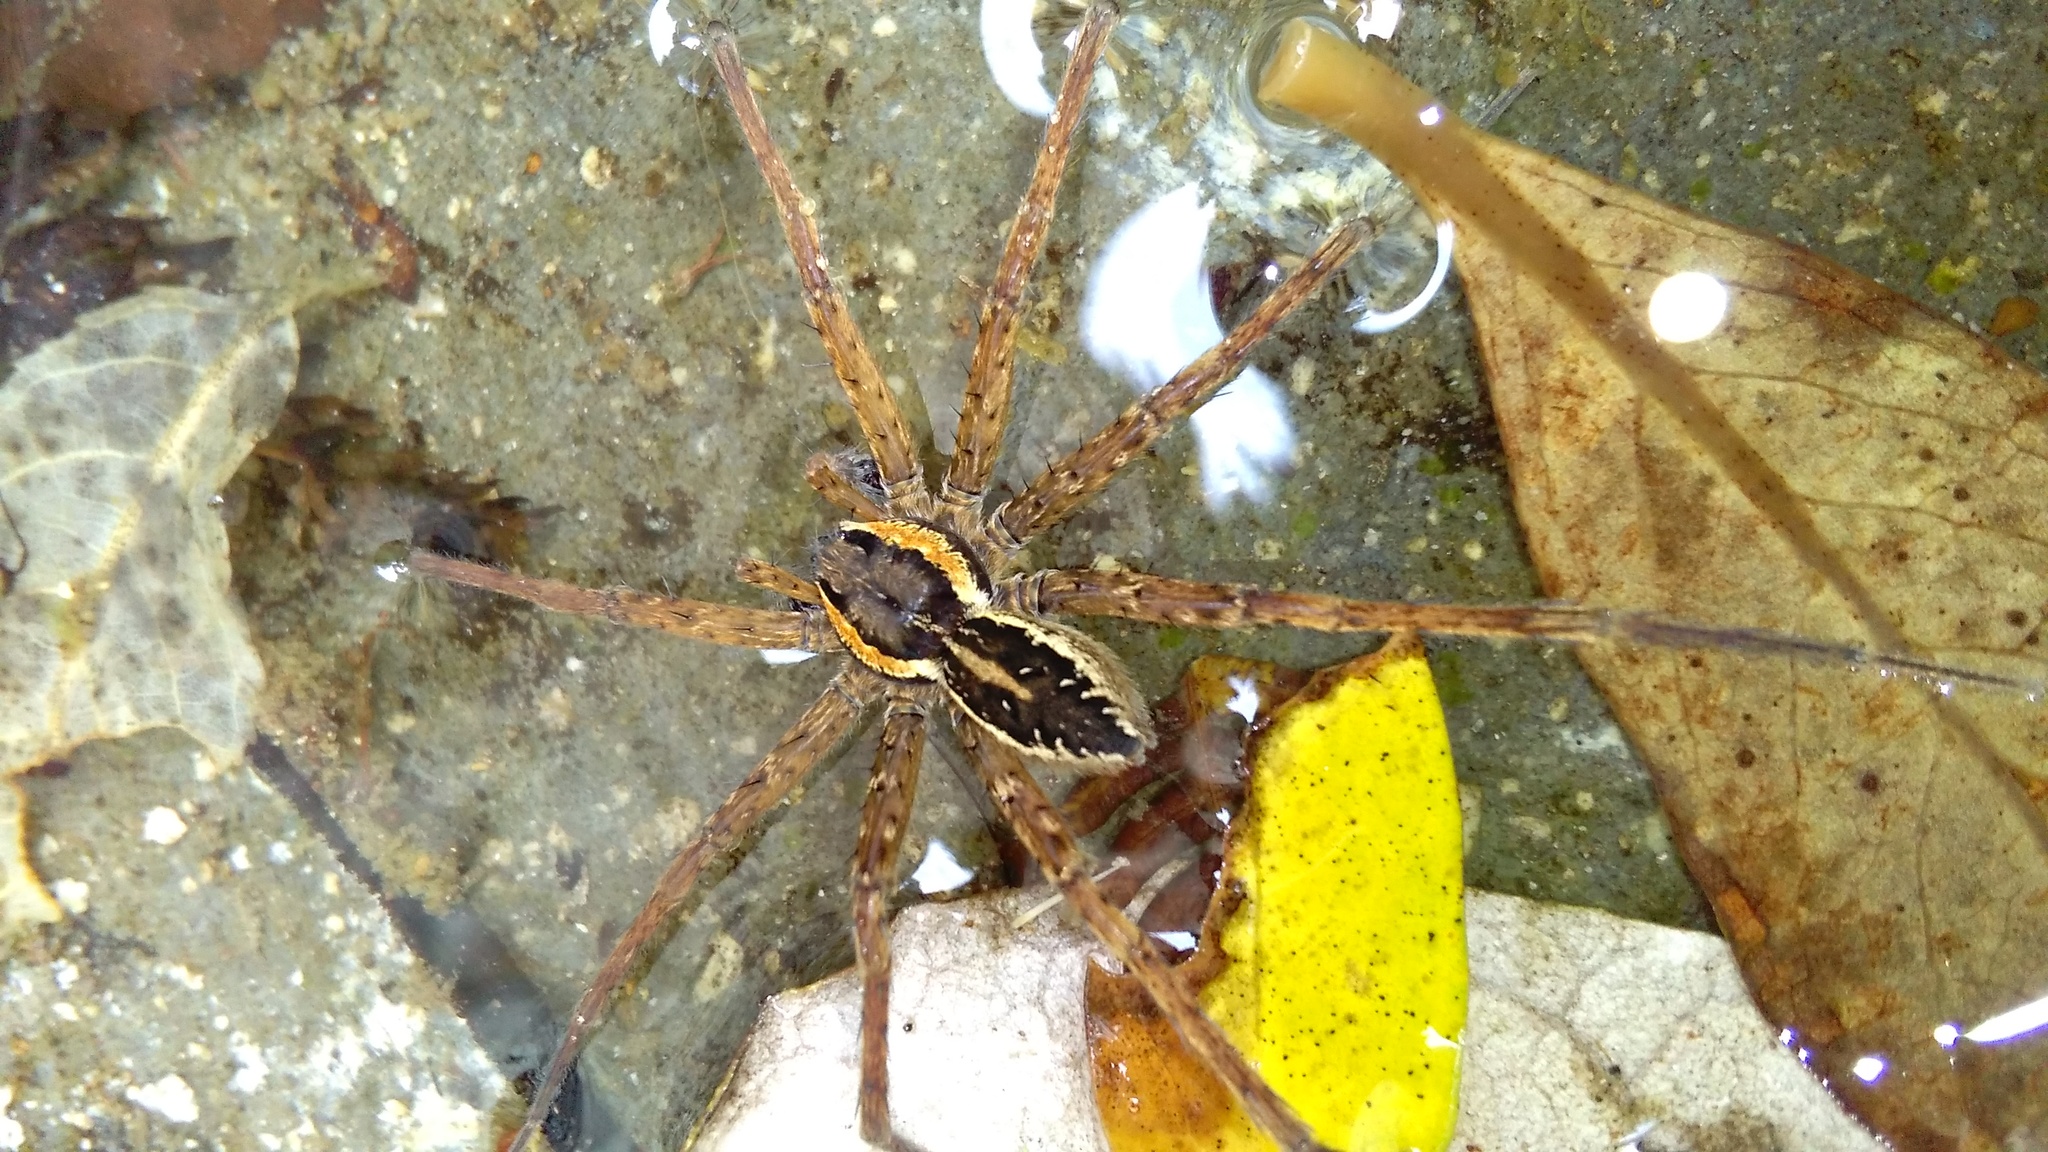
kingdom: Animalia
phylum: Arthropoda
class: Arachnida
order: Araneae
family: Pisauridae
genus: Dolomedes
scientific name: Dolomedes dondalei
